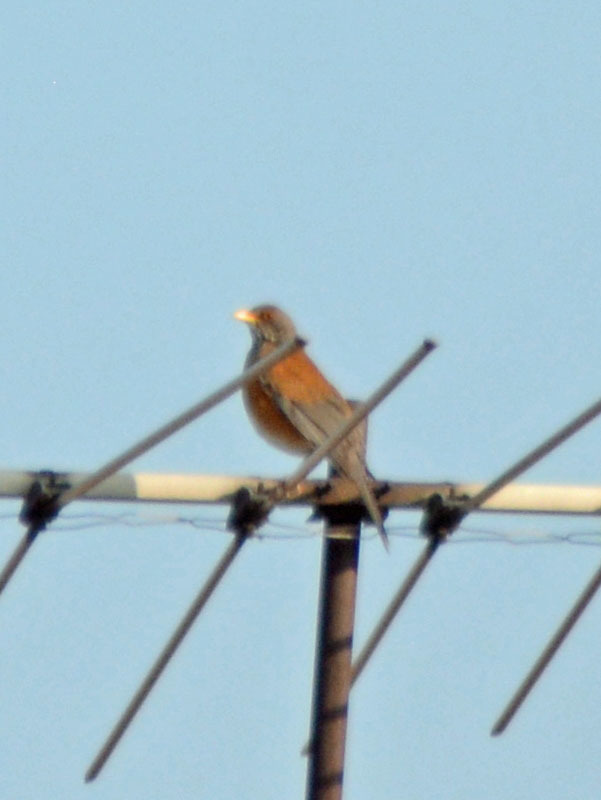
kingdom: Animalia
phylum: Chordata
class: Aves
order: Passeriformes
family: Turdidae
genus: Turdus
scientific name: Turdus rufopalliatus
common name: Rufous-backed robin
